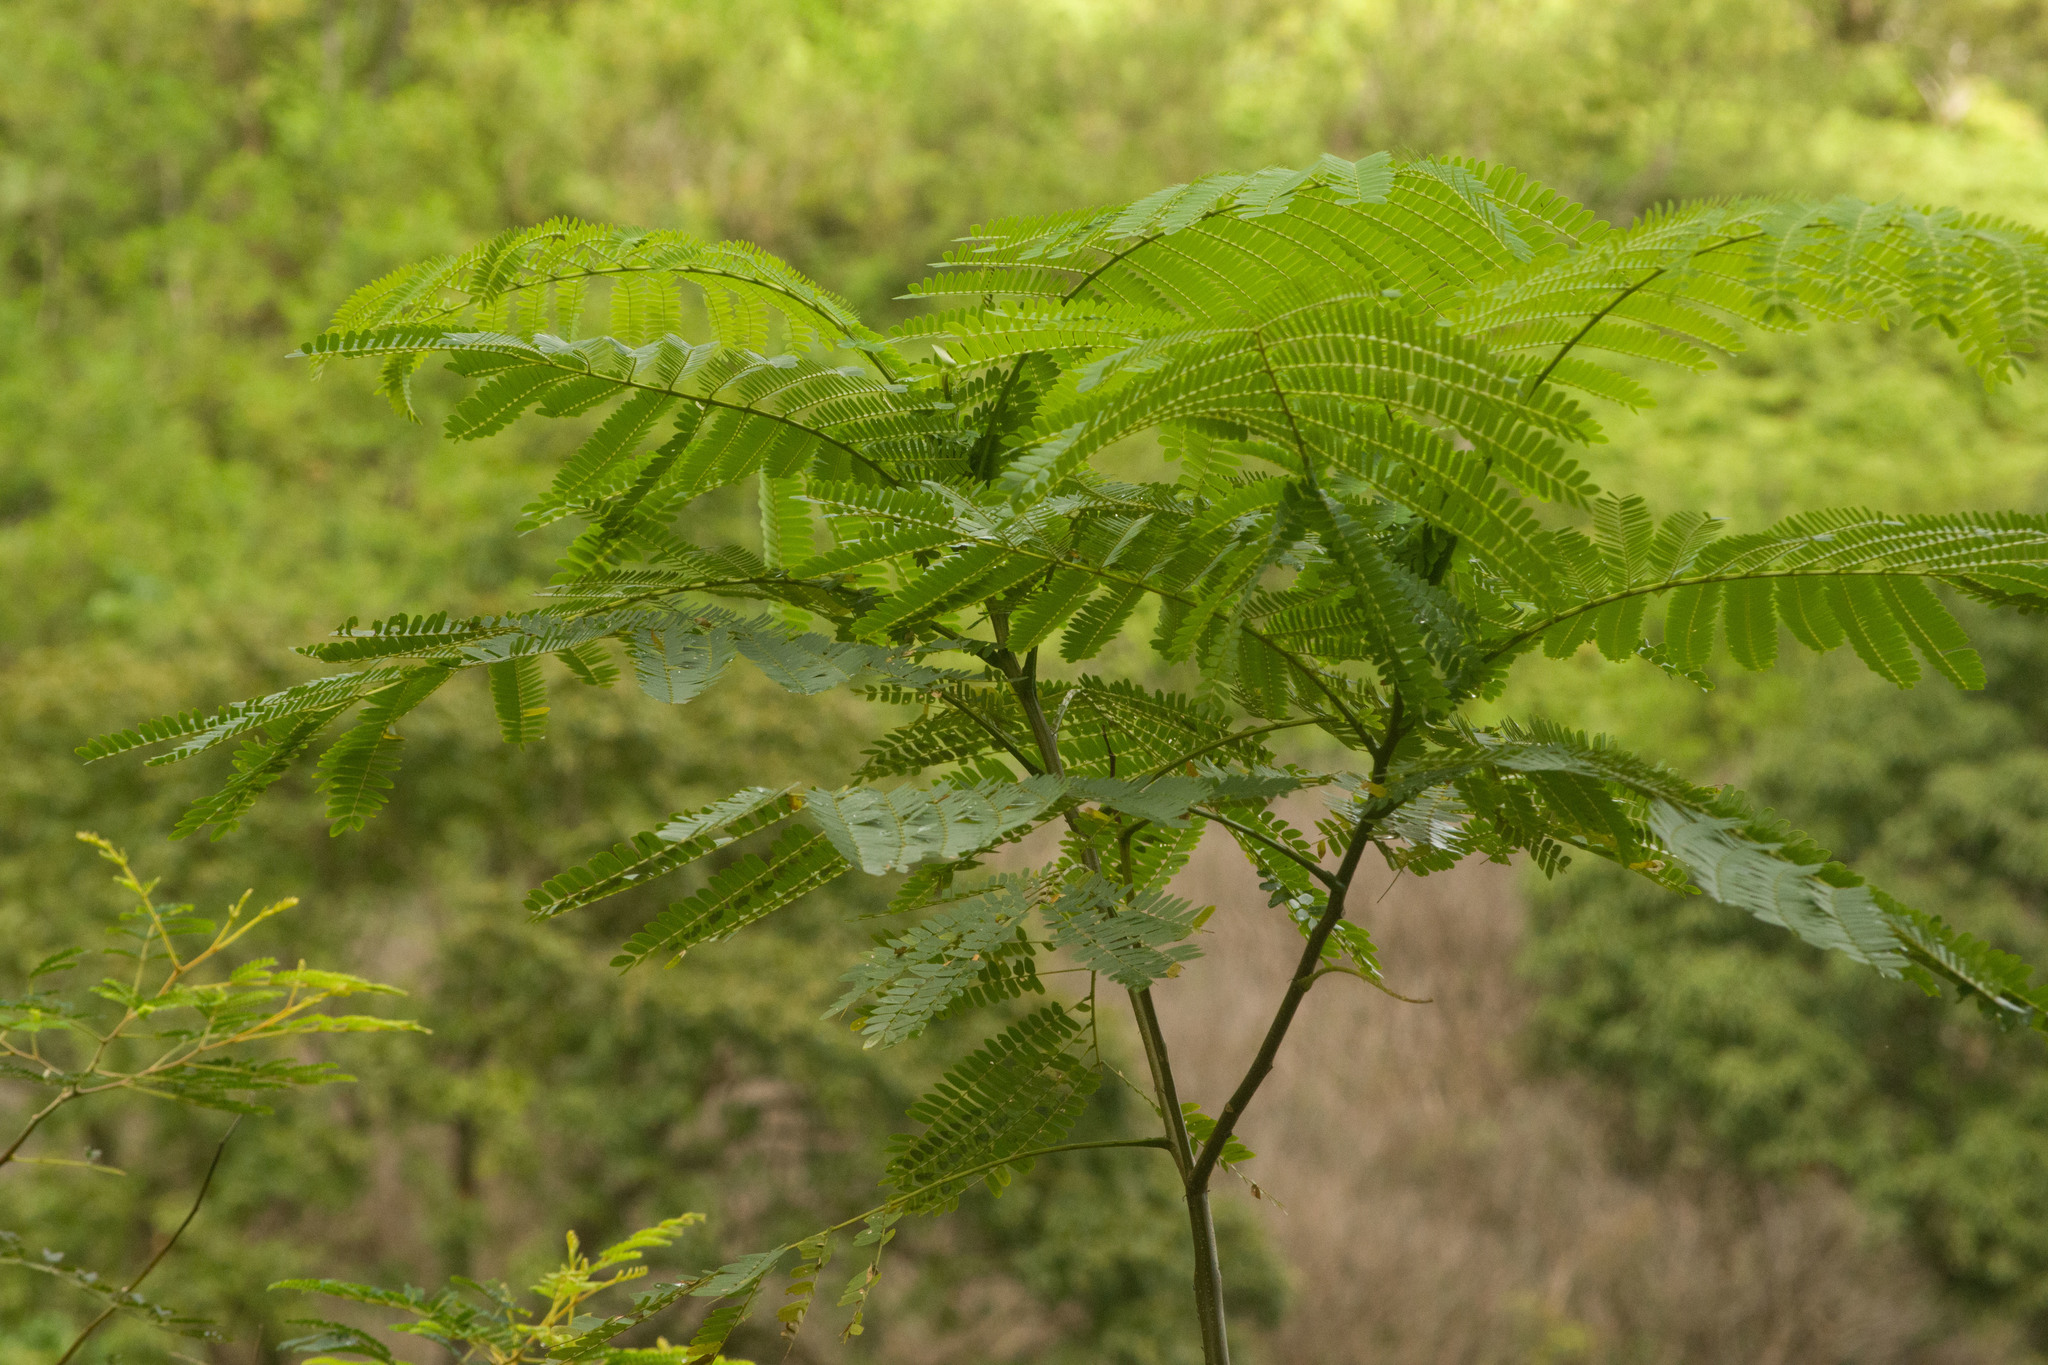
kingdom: Plantae
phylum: Tracheophyta
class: Magnoliopsida
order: Fabales
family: Fabaceae
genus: Falcataria
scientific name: Falcataria falcata
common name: Moluccan albizia
